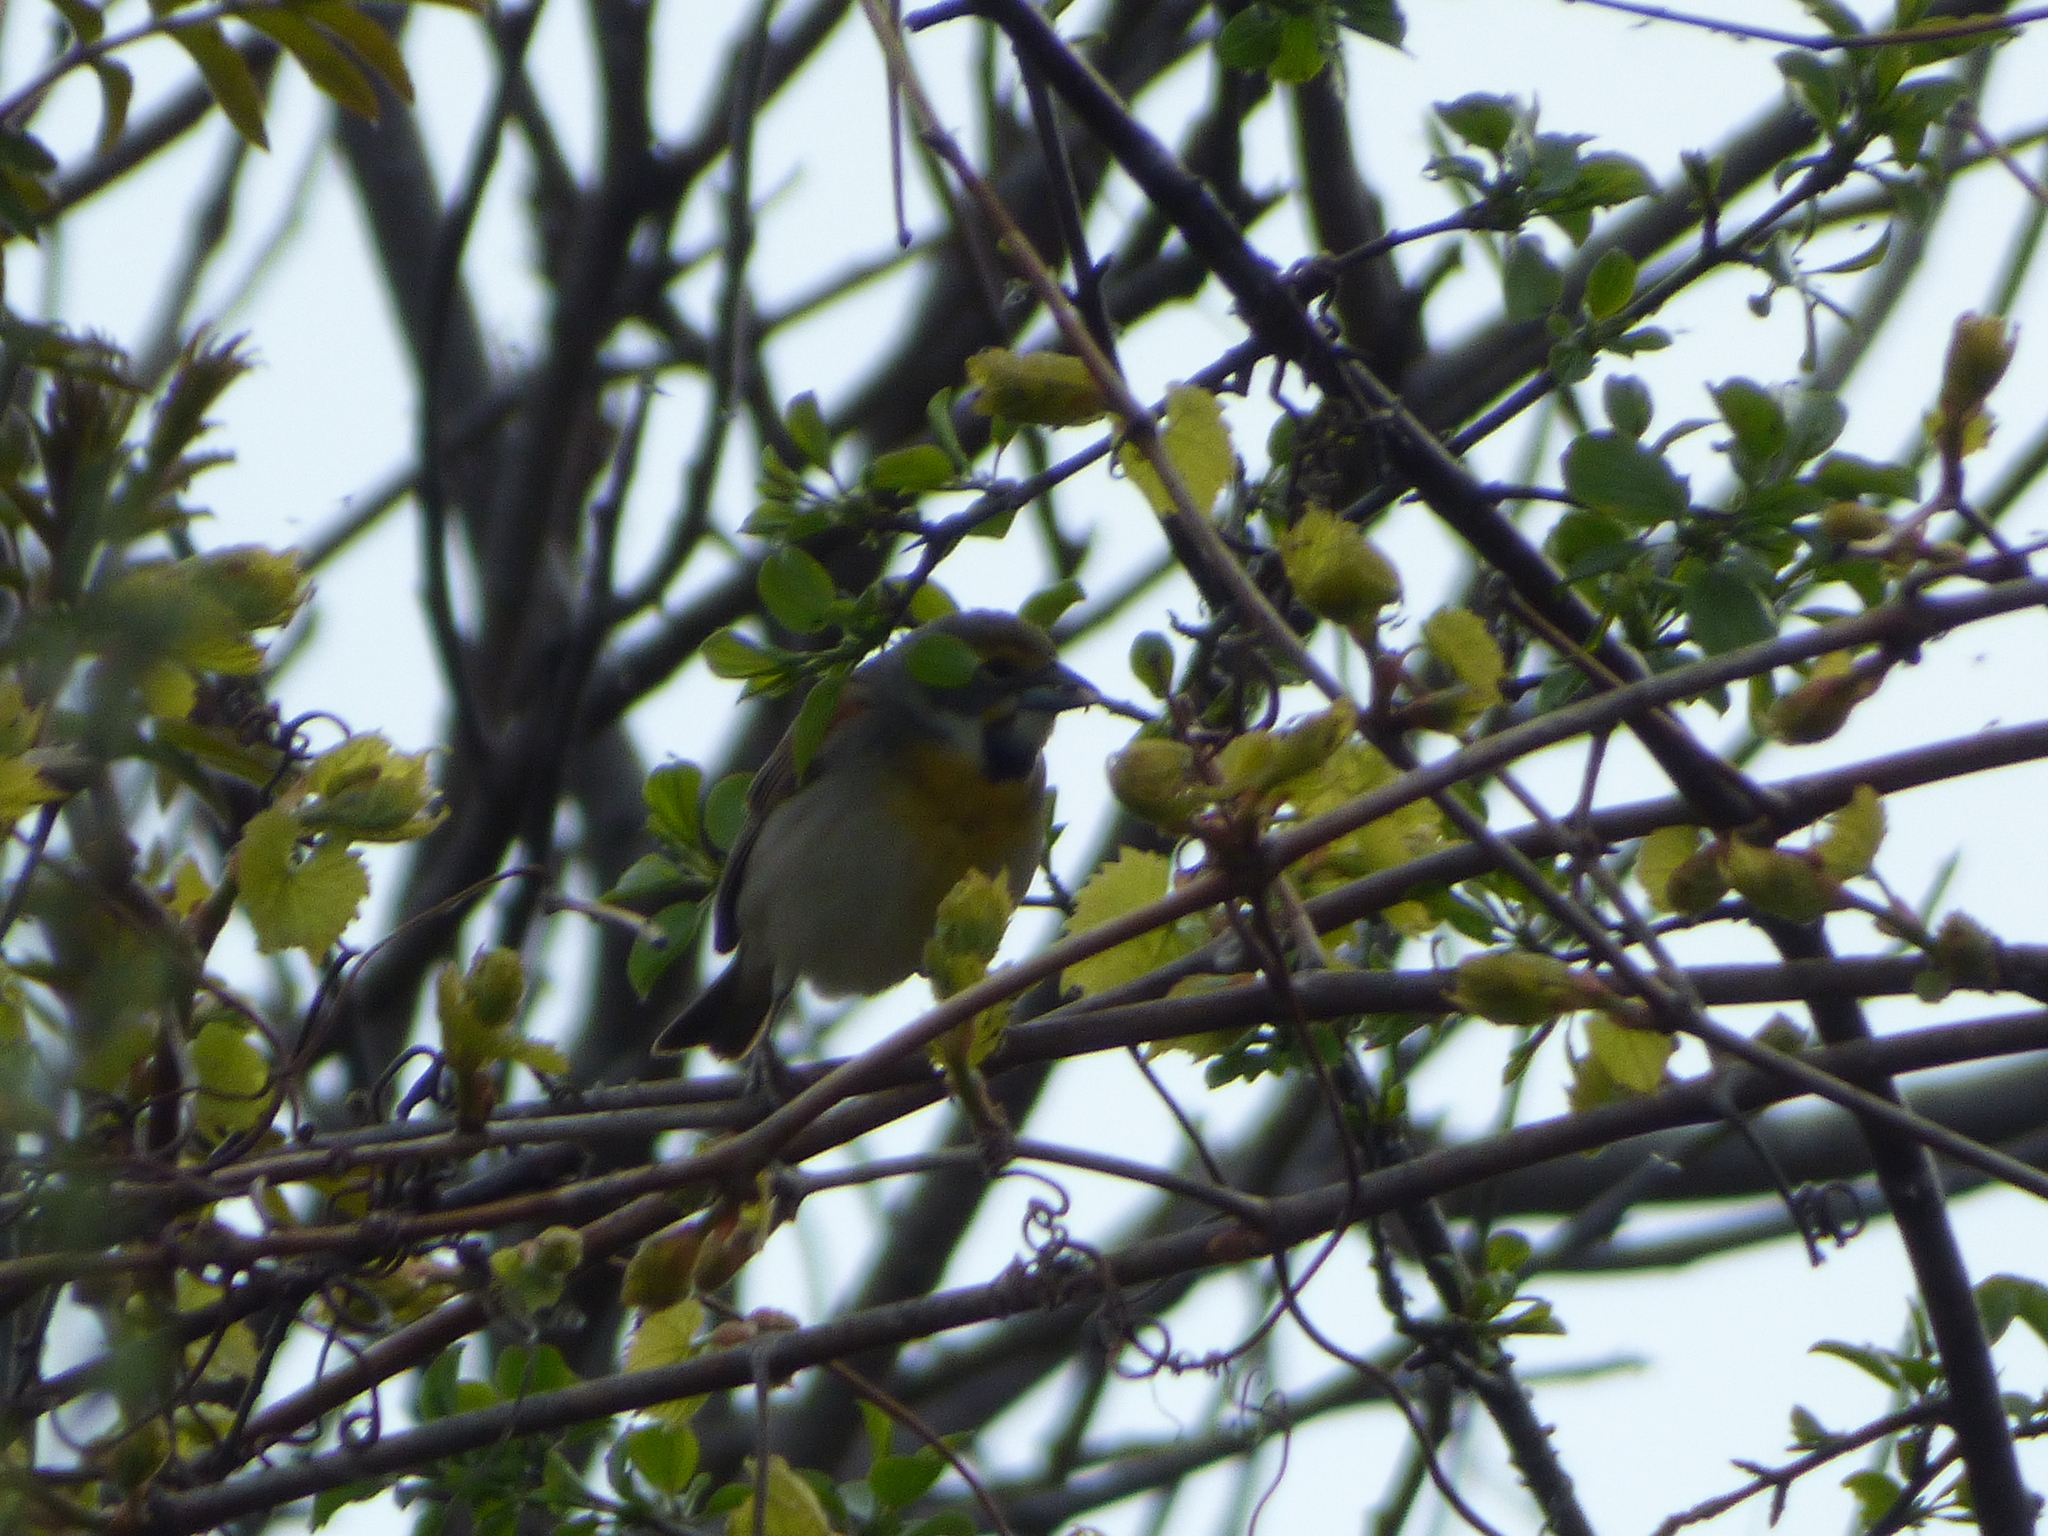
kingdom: Animalia
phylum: Chordata
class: Aves
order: Passeriformes
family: Cardinalidae
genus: Spiza
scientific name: Spiza americana
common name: Dickcissel
